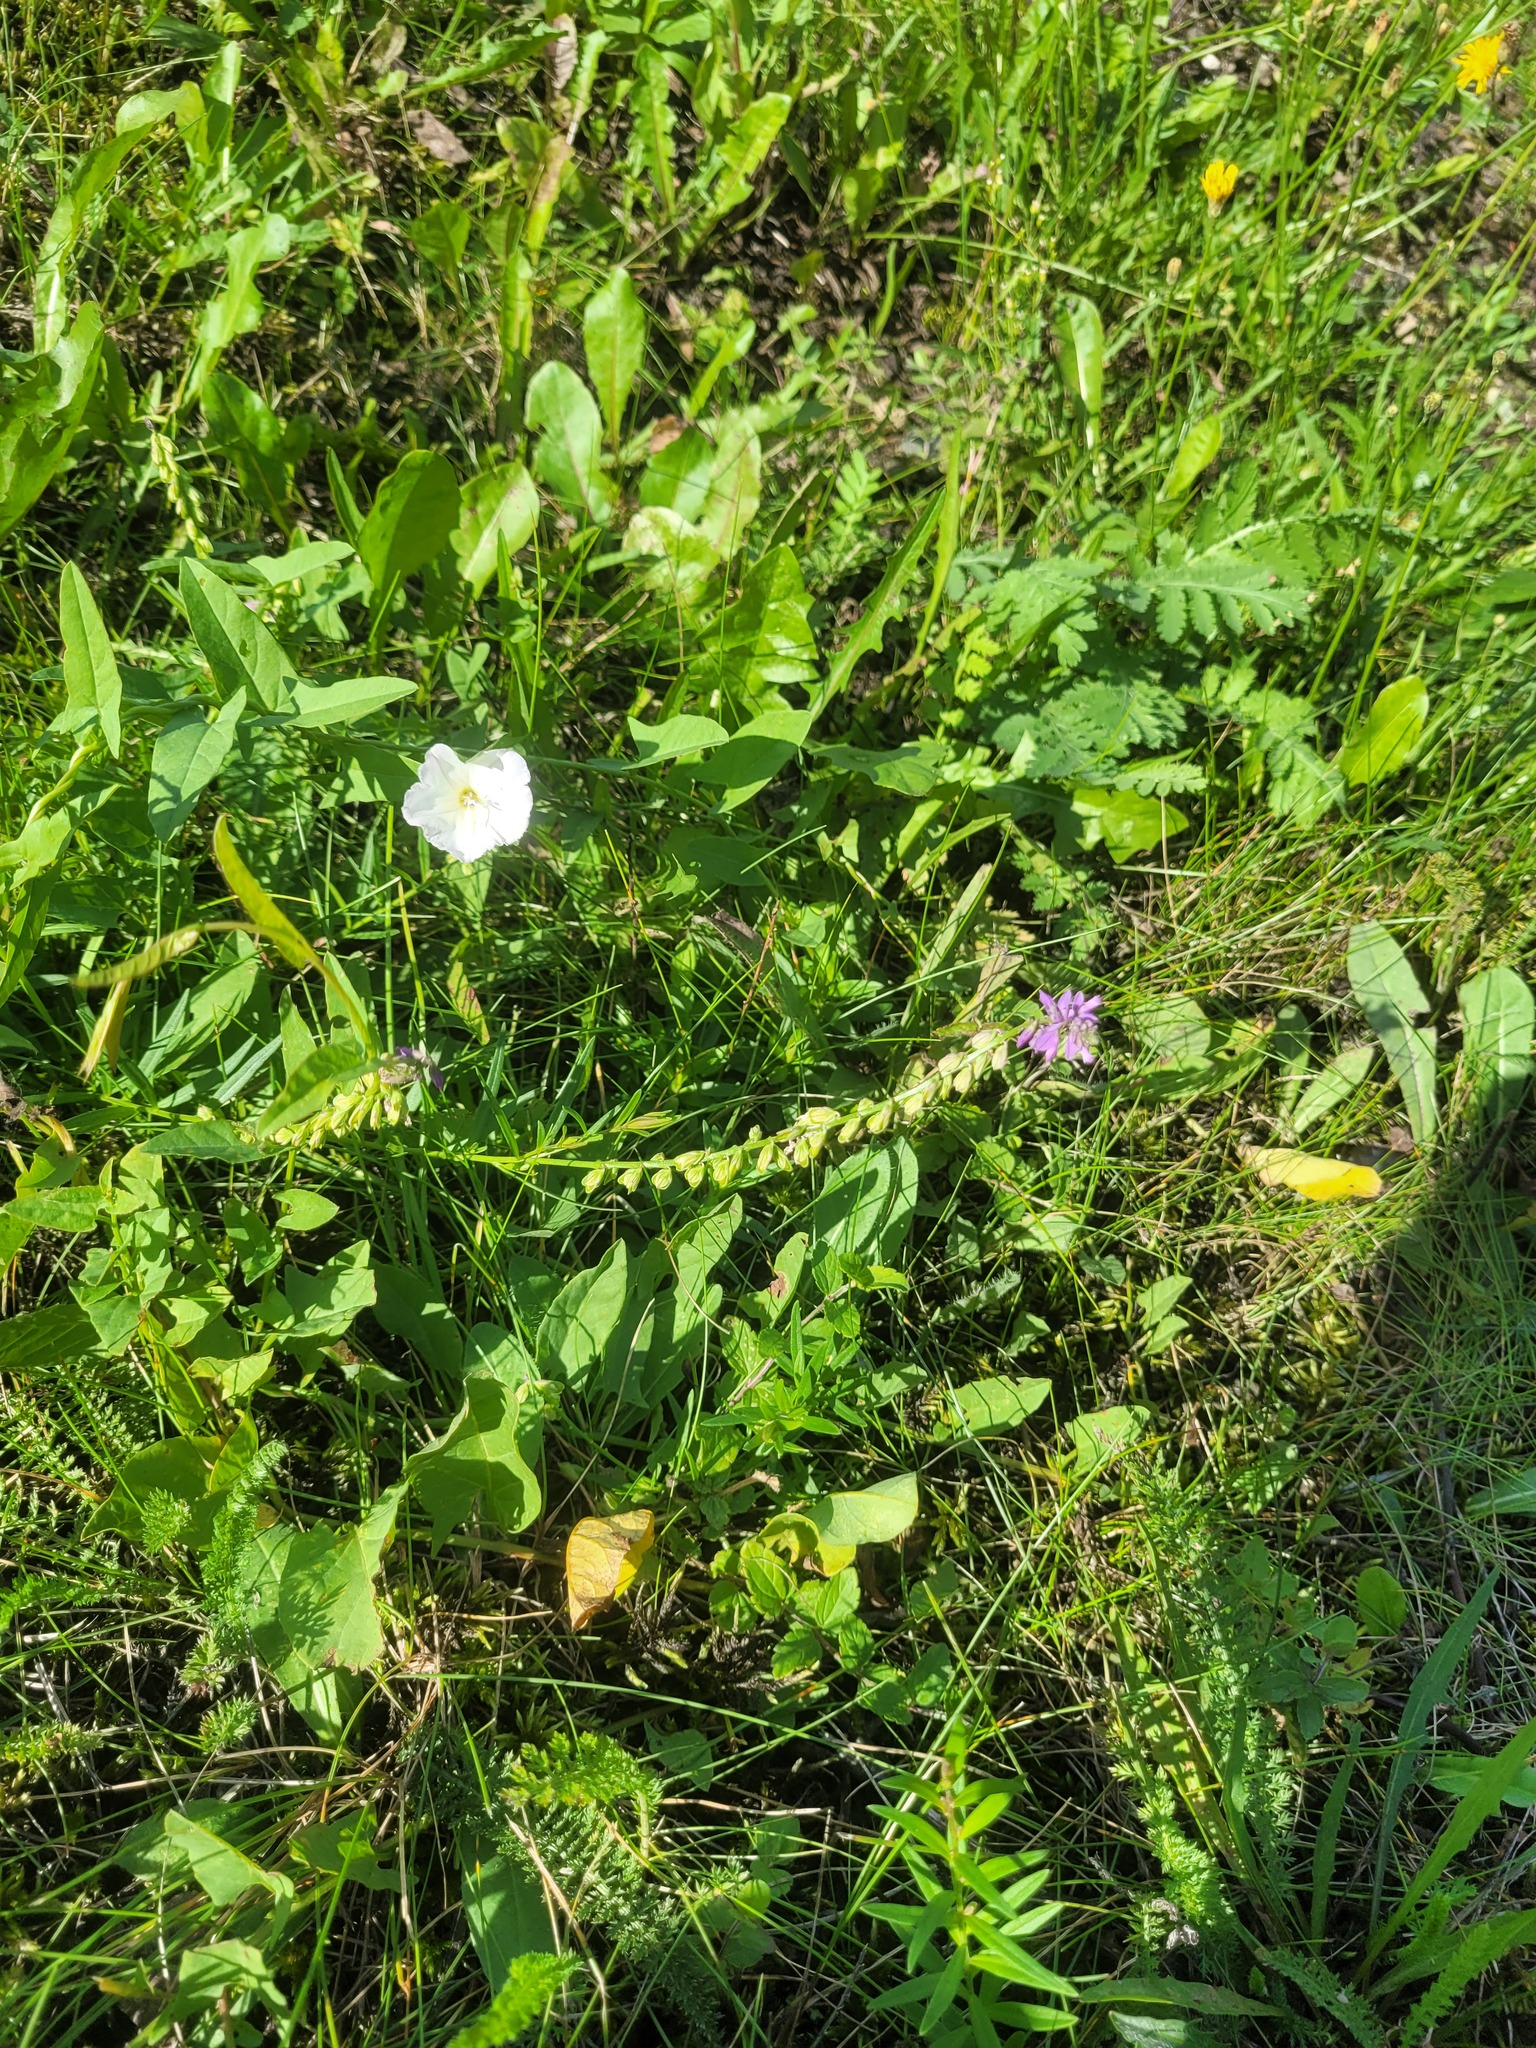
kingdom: Plantae
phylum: Tracheophyta
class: Magnoliopsida
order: Fabales
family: Polygalaceae
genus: Polygala
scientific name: Polygala comosa
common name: Tufted milkwort
